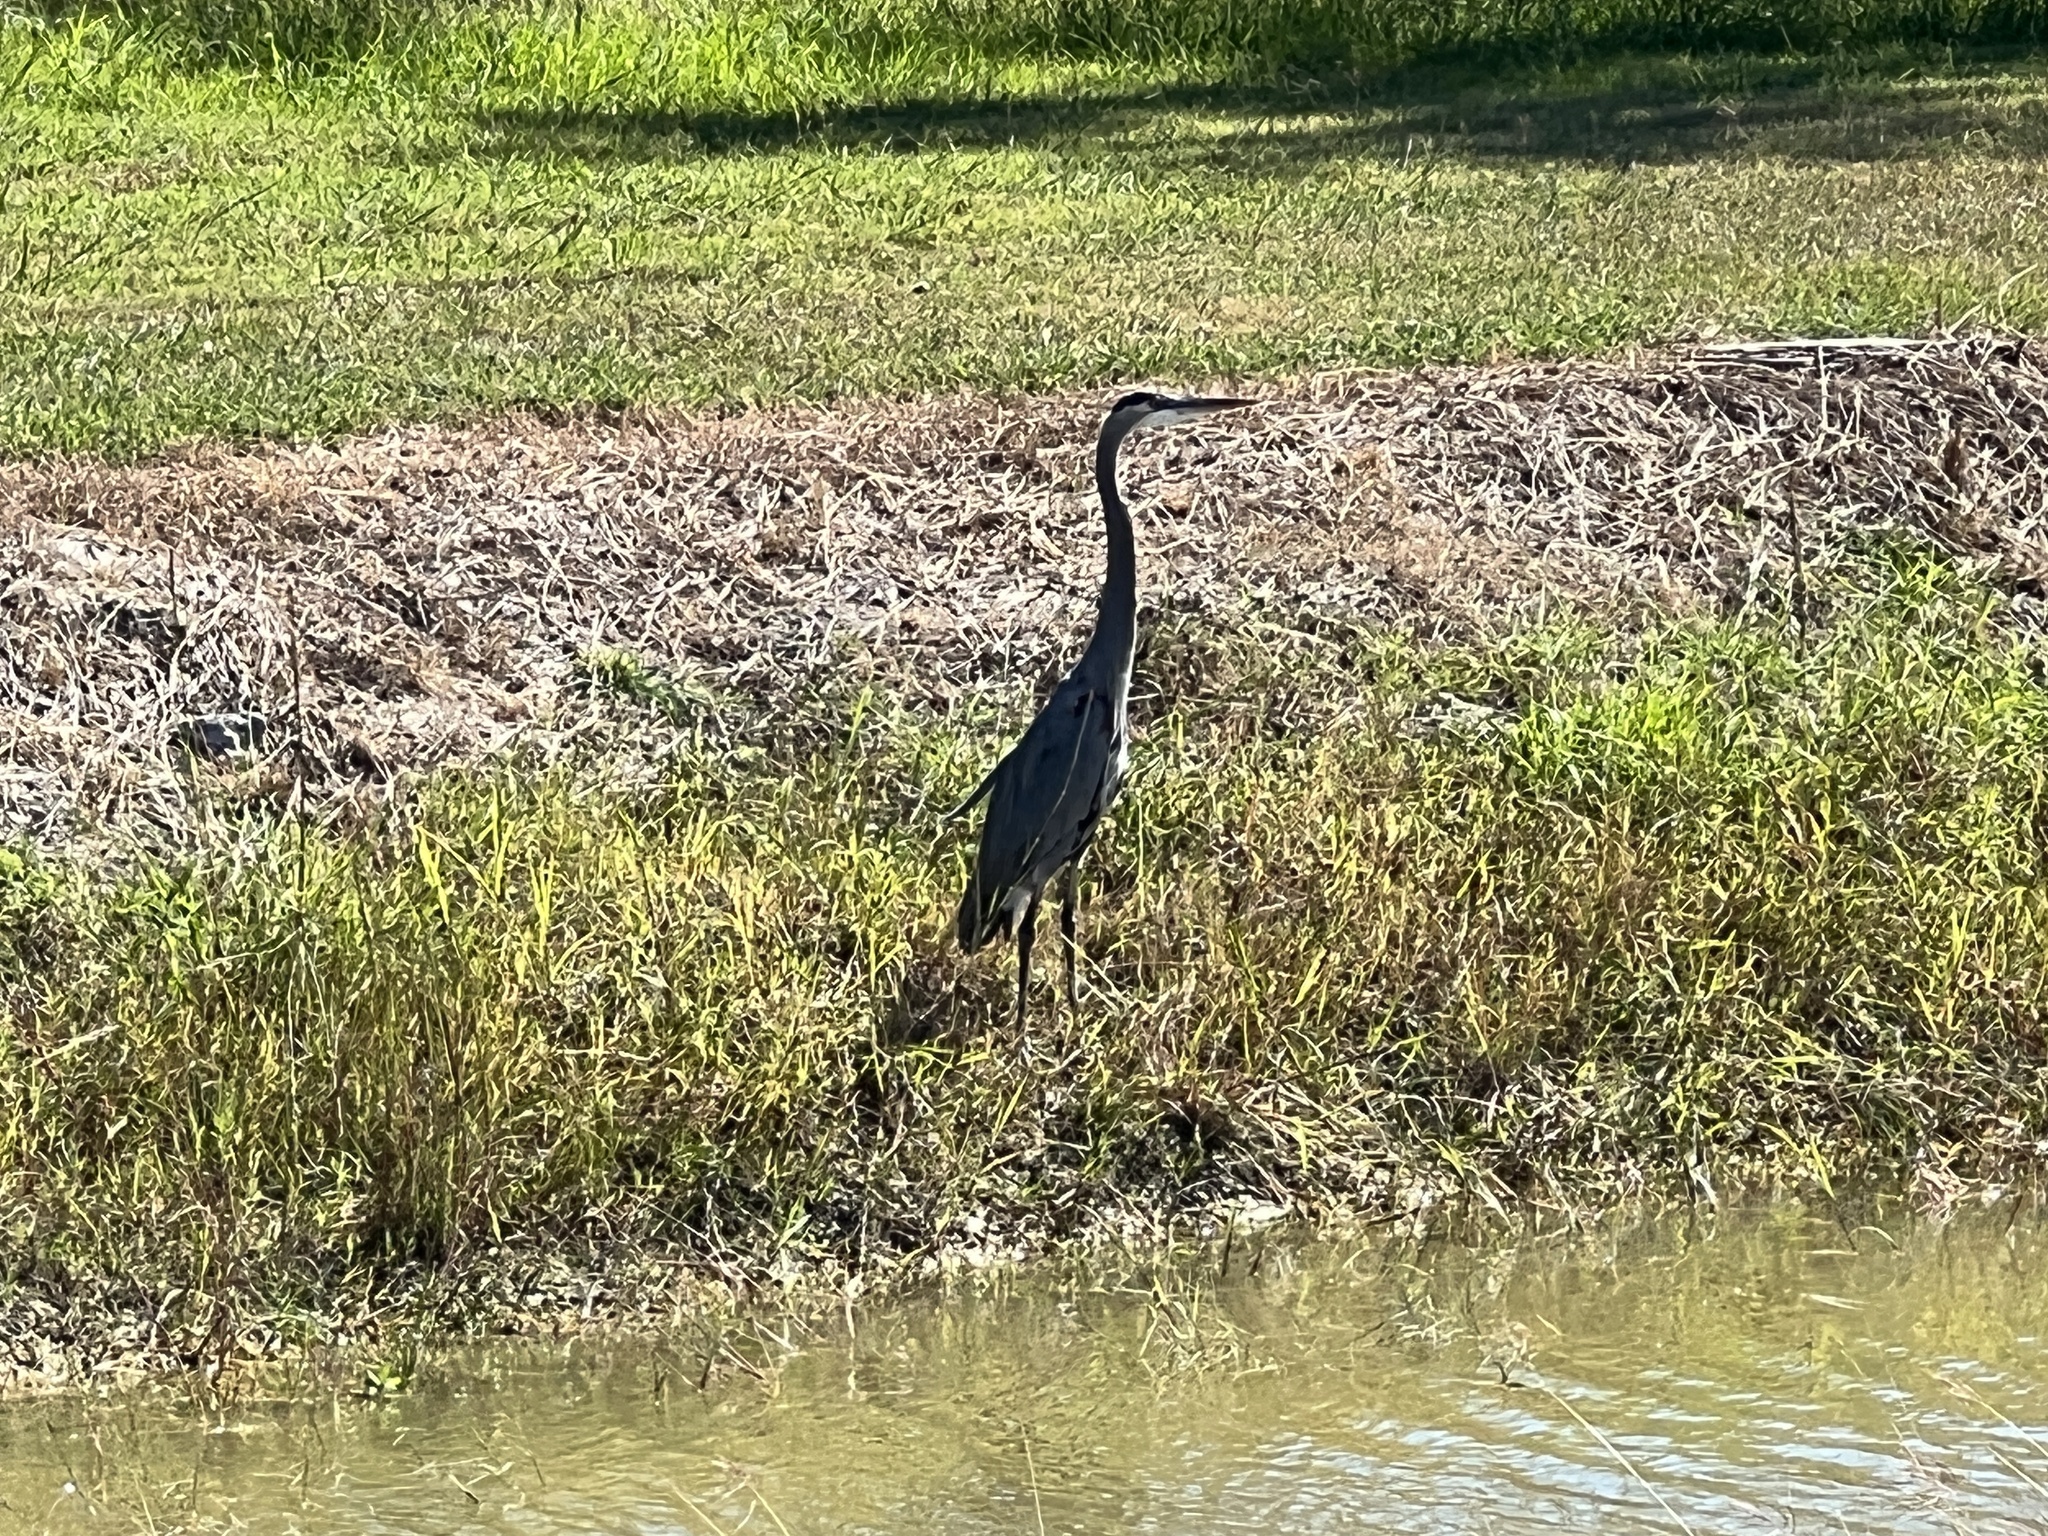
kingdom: Animalia
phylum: Chordata
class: Aves
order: Pelecaniformes
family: Ardeidae
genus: Ardea
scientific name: Ardea herodias
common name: Great blue heron
